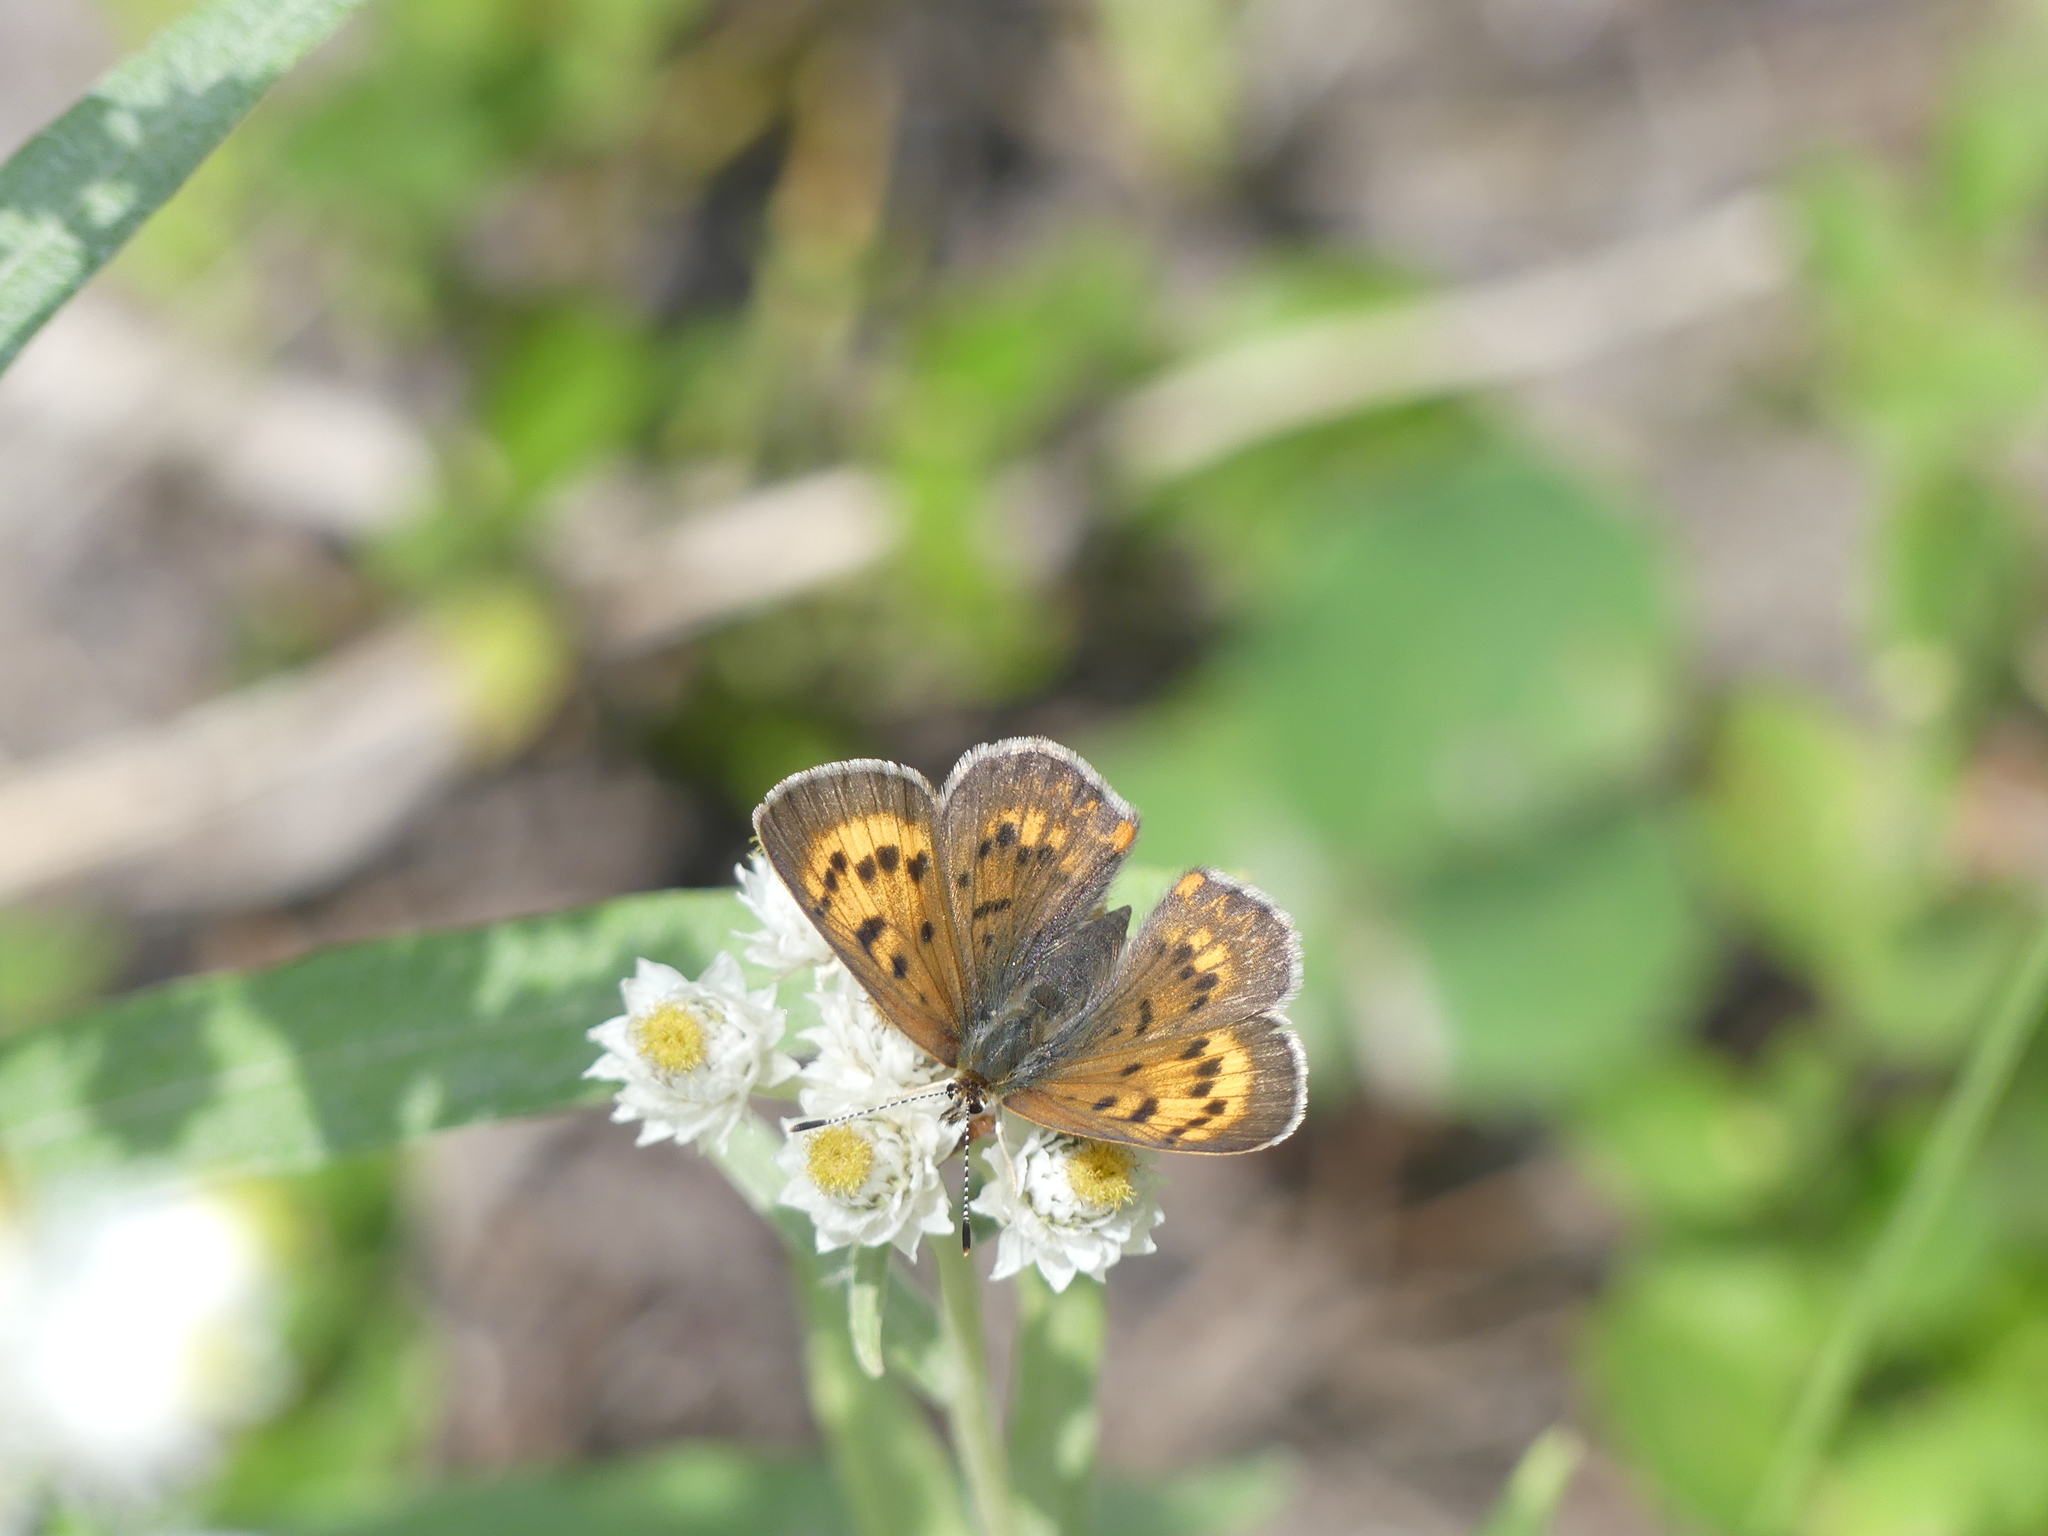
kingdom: Animalia
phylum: Arthropoda
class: Insecta
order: Lepidoptera
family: Lycaenidae
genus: Tharsalea
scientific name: Tharsalea dorcas
